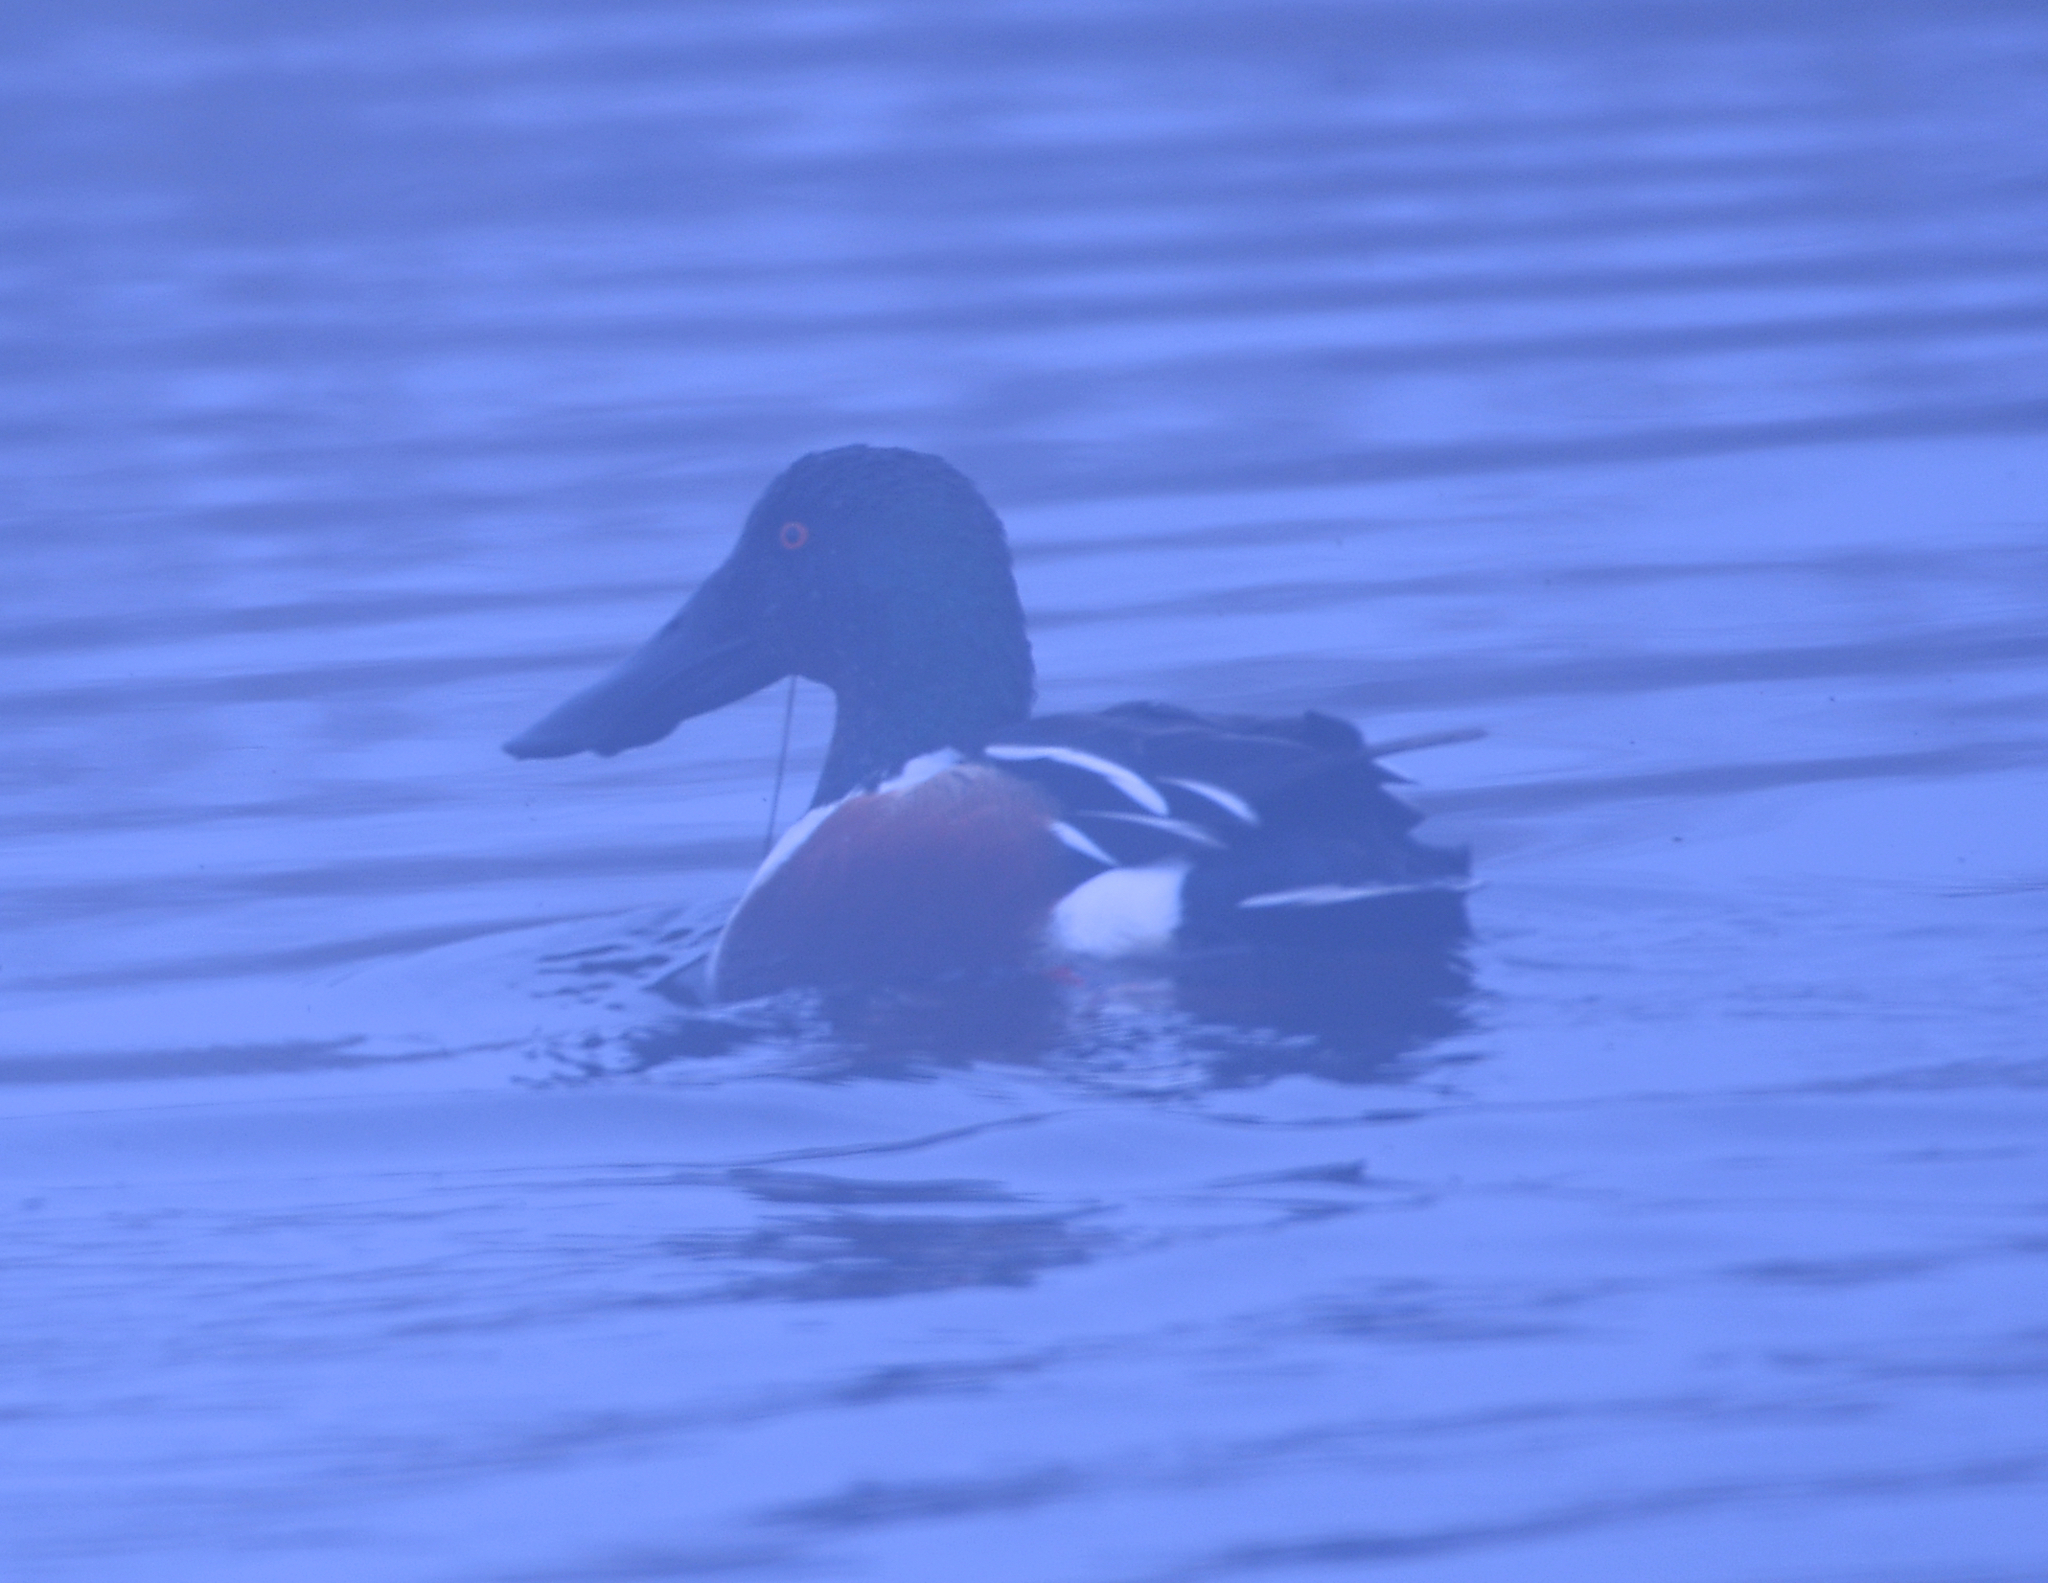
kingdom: Animalia
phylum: Chordata
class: Aves
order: Anseriformes
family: Anatidae
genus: Spatula
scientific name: Spatula clypeata
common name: Northern shoveler
